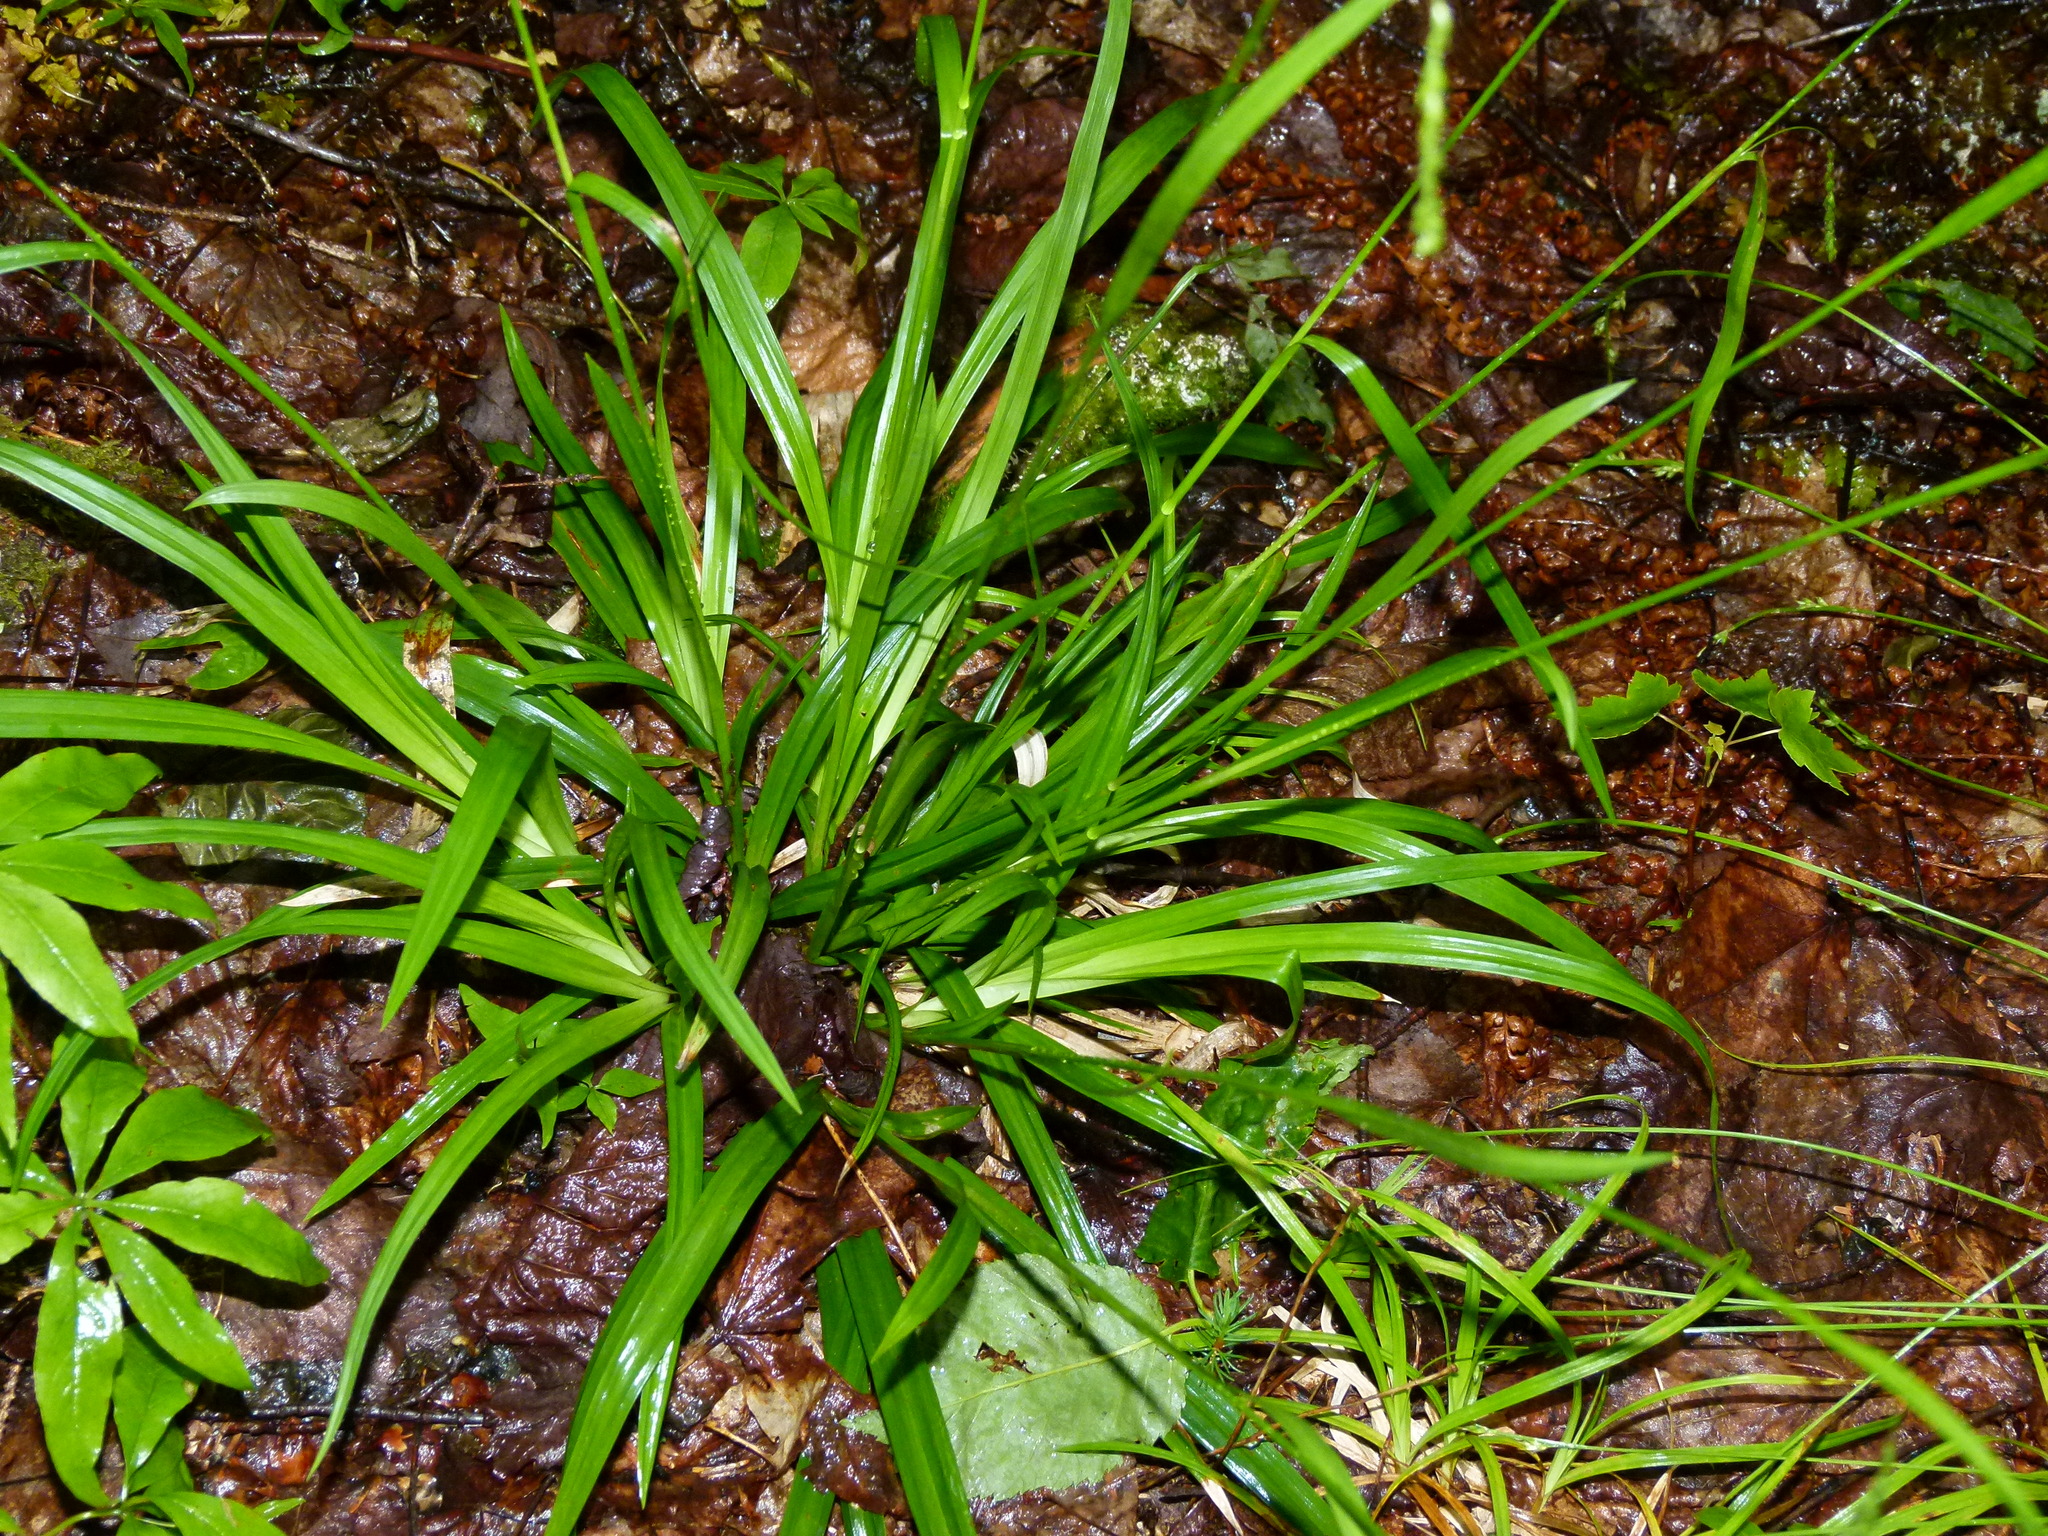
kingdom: Plantae
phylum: Tracheophyta
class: Liliopsida
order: Poales
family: Cyperaceae
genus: Carex
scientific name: Carex arctata
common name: Black sedge
